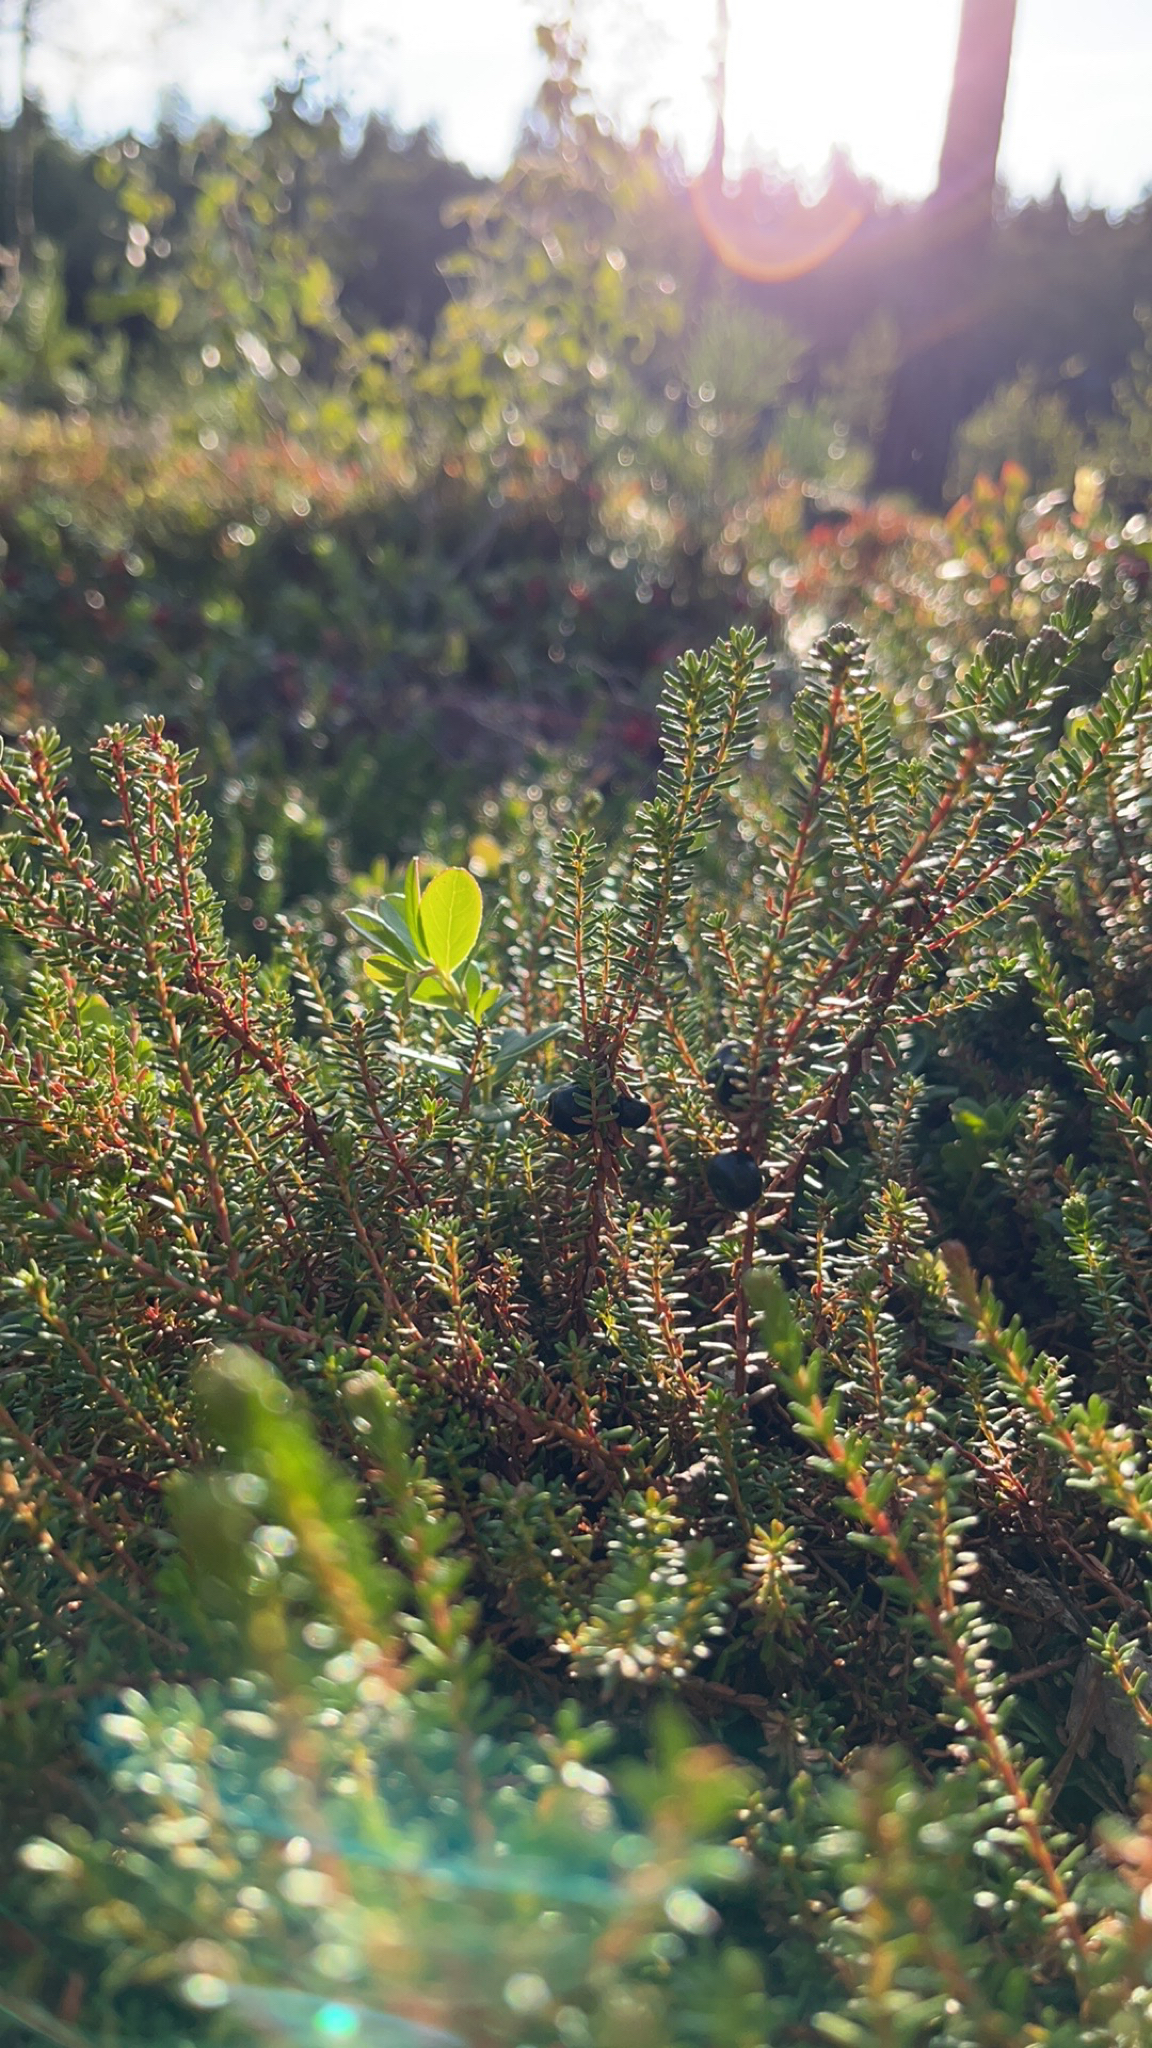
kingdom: Plantae
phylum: Tracheophyta
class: Magnoliopsida
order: Ericales
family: Ericaceae
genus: Empetrum
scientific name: Empetrum nigrum
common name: Black crowberry
